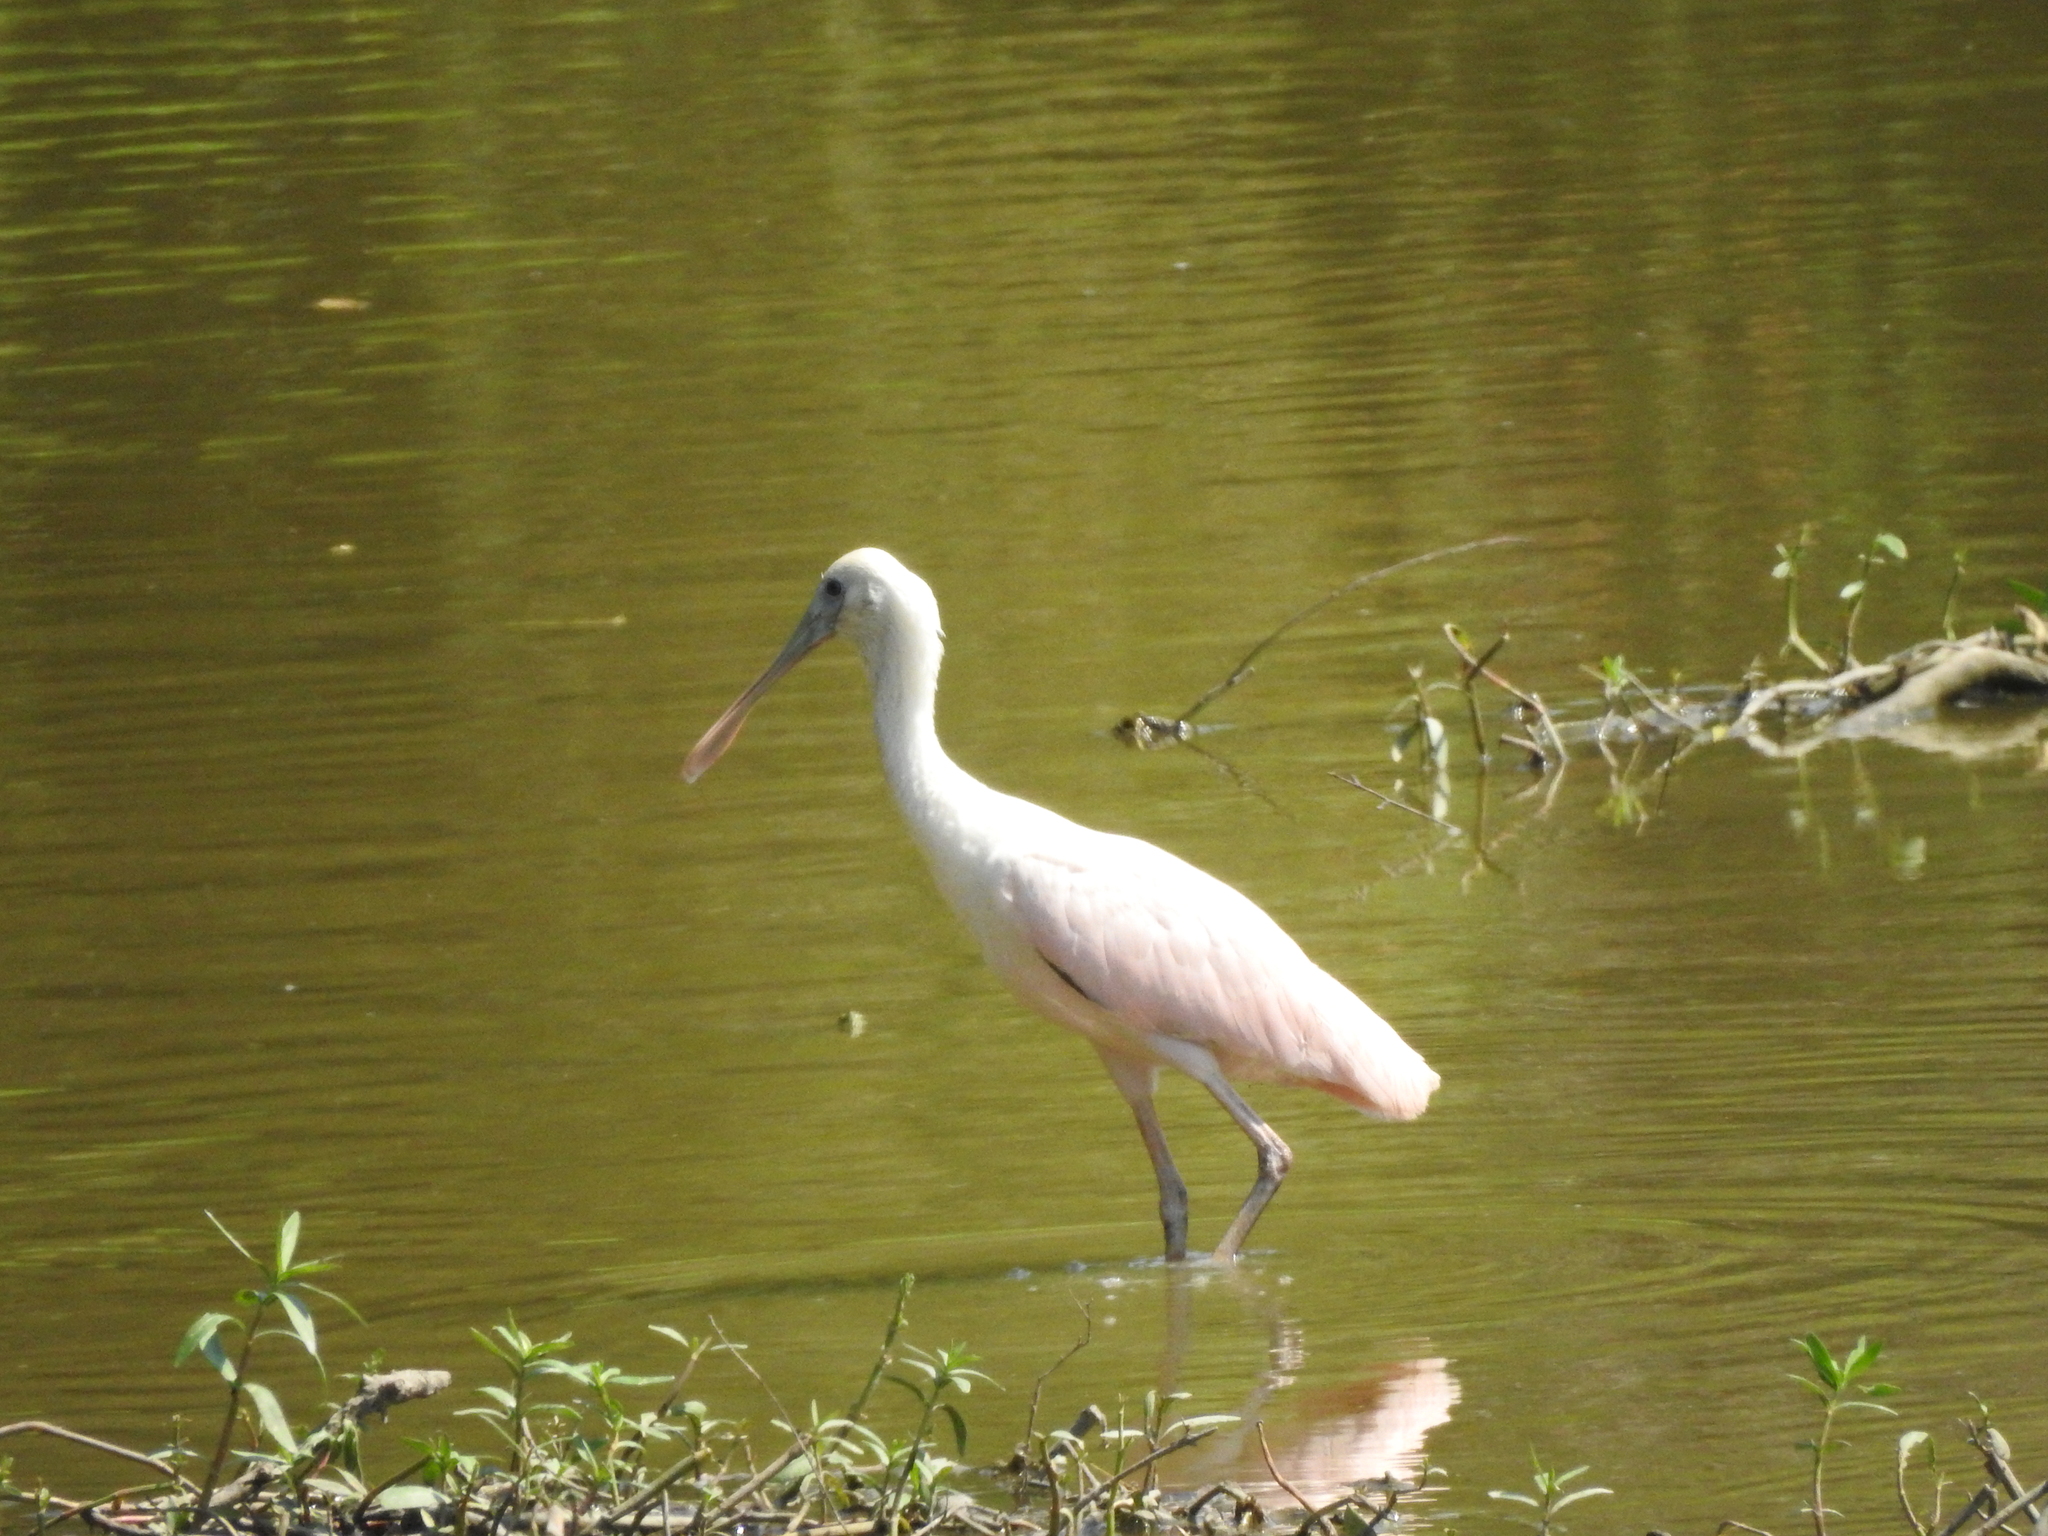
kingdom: Animalia
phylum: Chordata
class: Aves
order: Pelecaniformes
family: Threskiornithidae
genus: Platalea
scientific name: Platalea ajaja
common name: Roseate spoonbill
